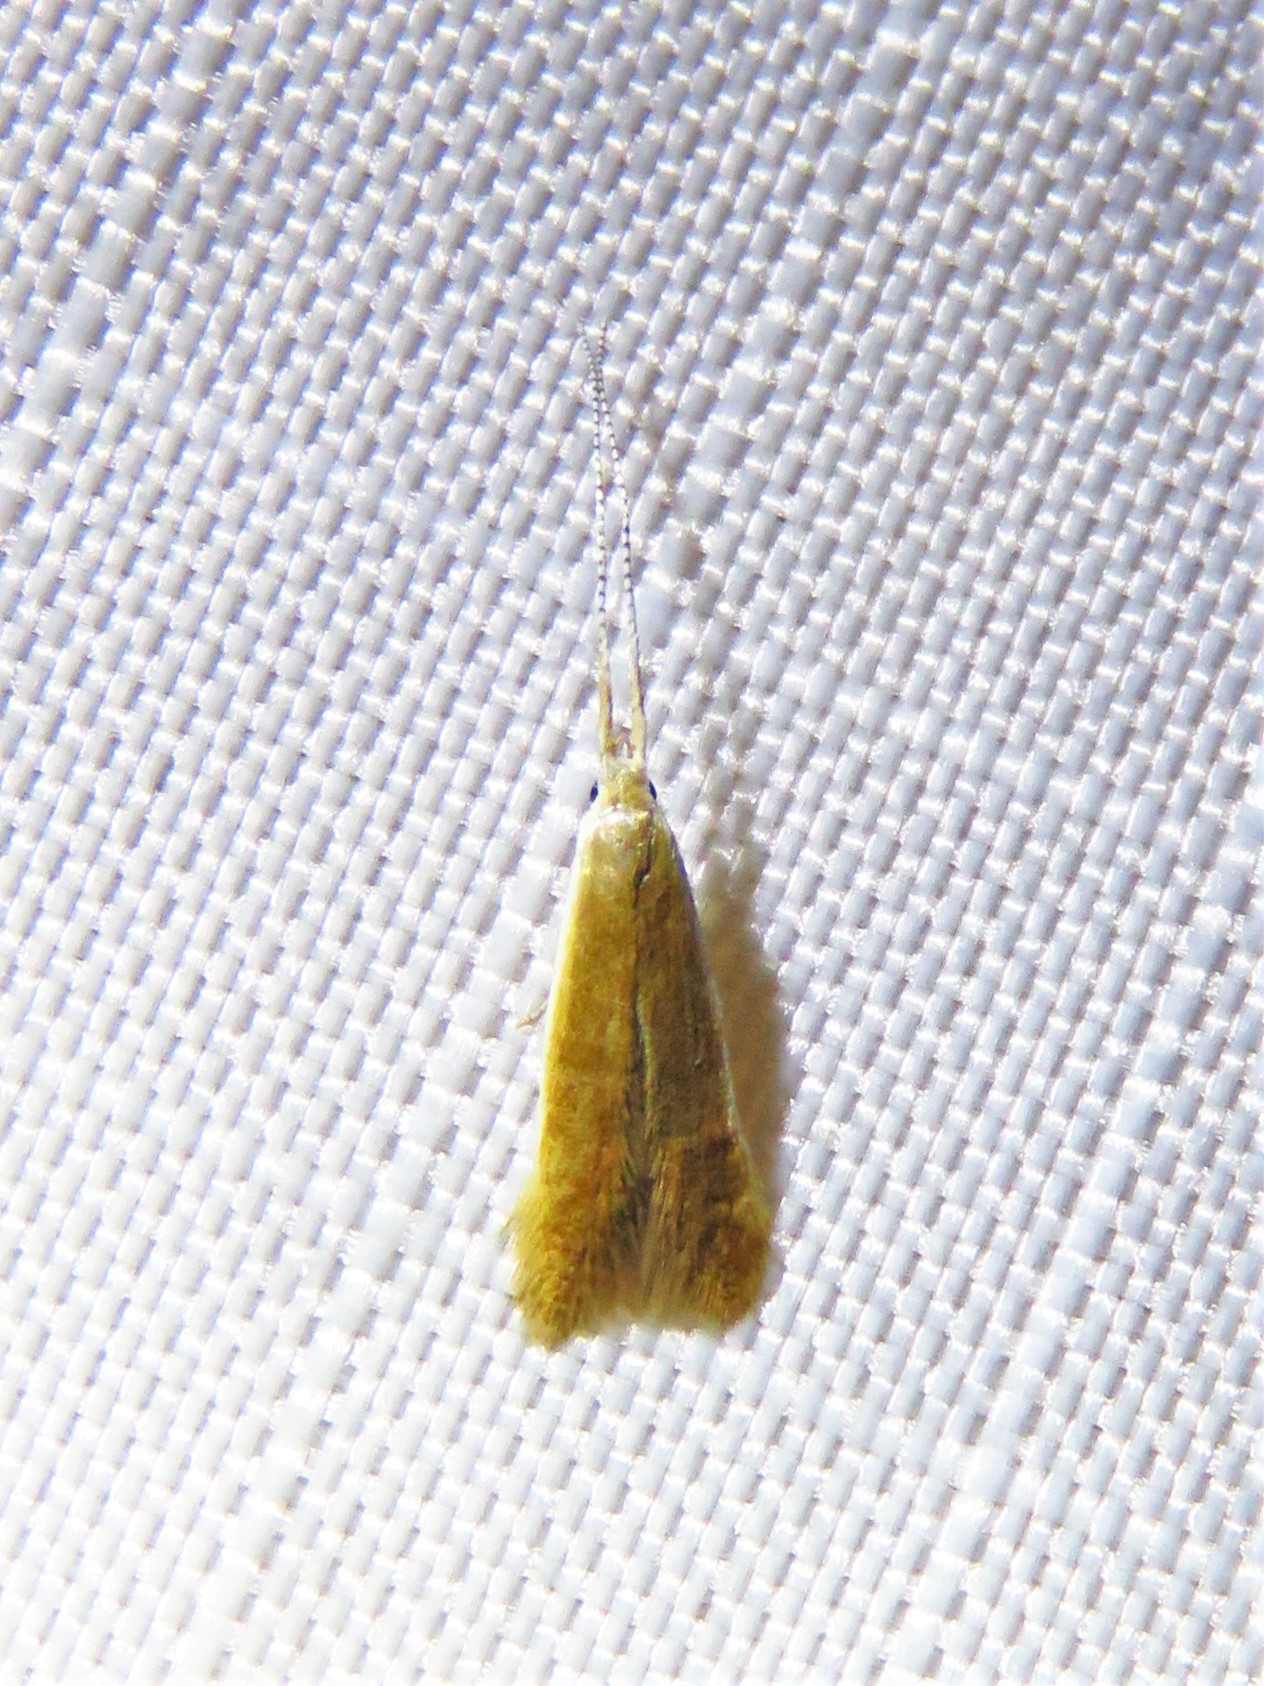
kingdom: Animalia
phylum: Arthropoda
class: Insecta
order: Lepidoptera
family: Coleophoridae
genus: Coleophora
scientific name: Coleophora laticornella
